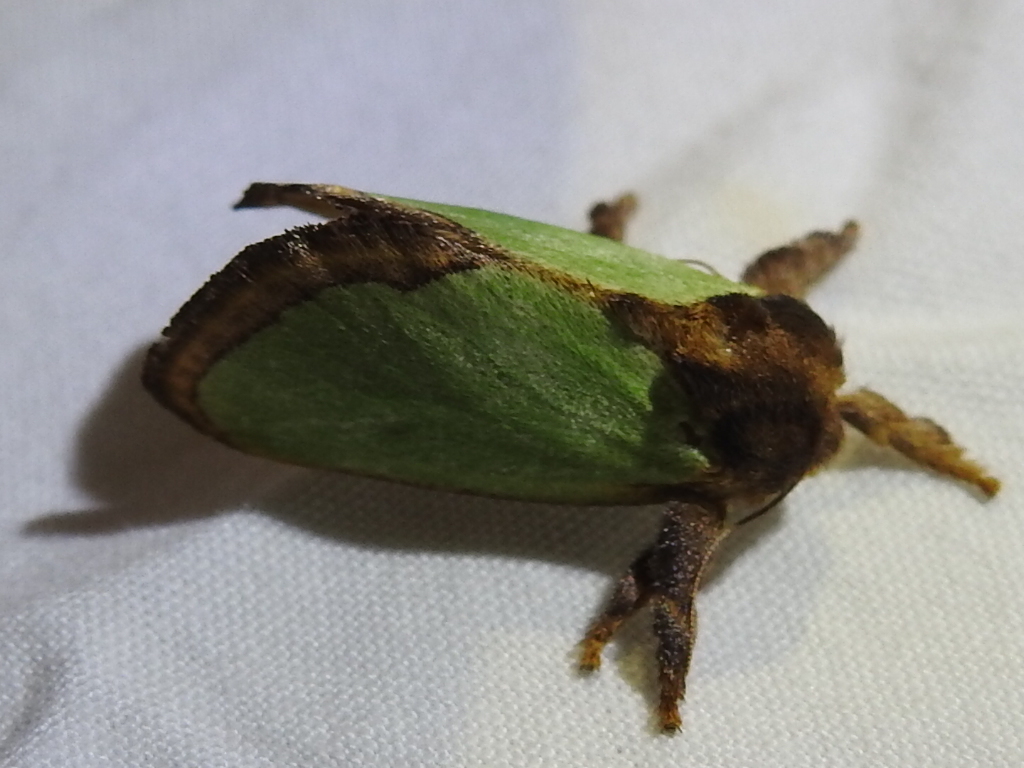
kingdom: Animalia
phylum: Arthropoda
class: Insecta
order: Lepidoptera
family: Limacodidae
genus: Euclea
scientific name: Euclea incisa
